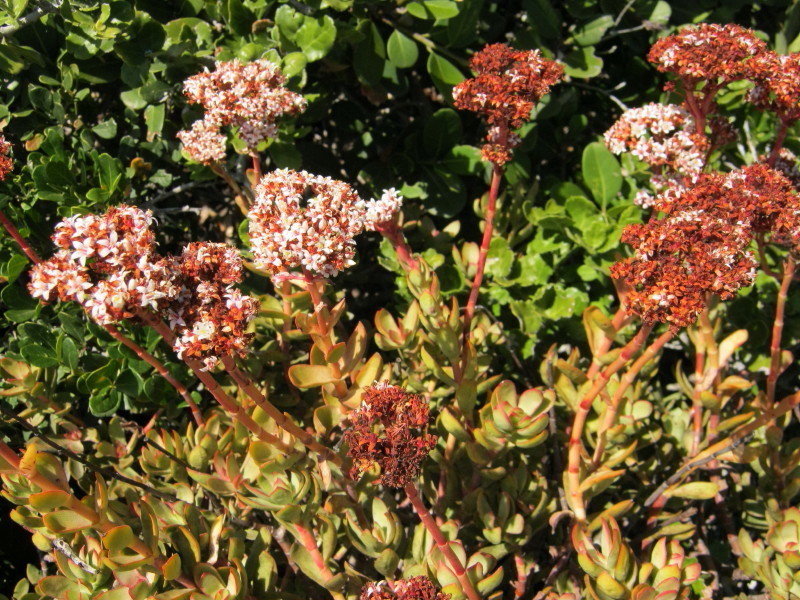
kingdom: Plantae
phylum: Tracheophyta
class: Magnoliopsida
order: Saxifragales
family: Crassulaceae
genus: Crassula
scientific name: Crassula rubricaulis
